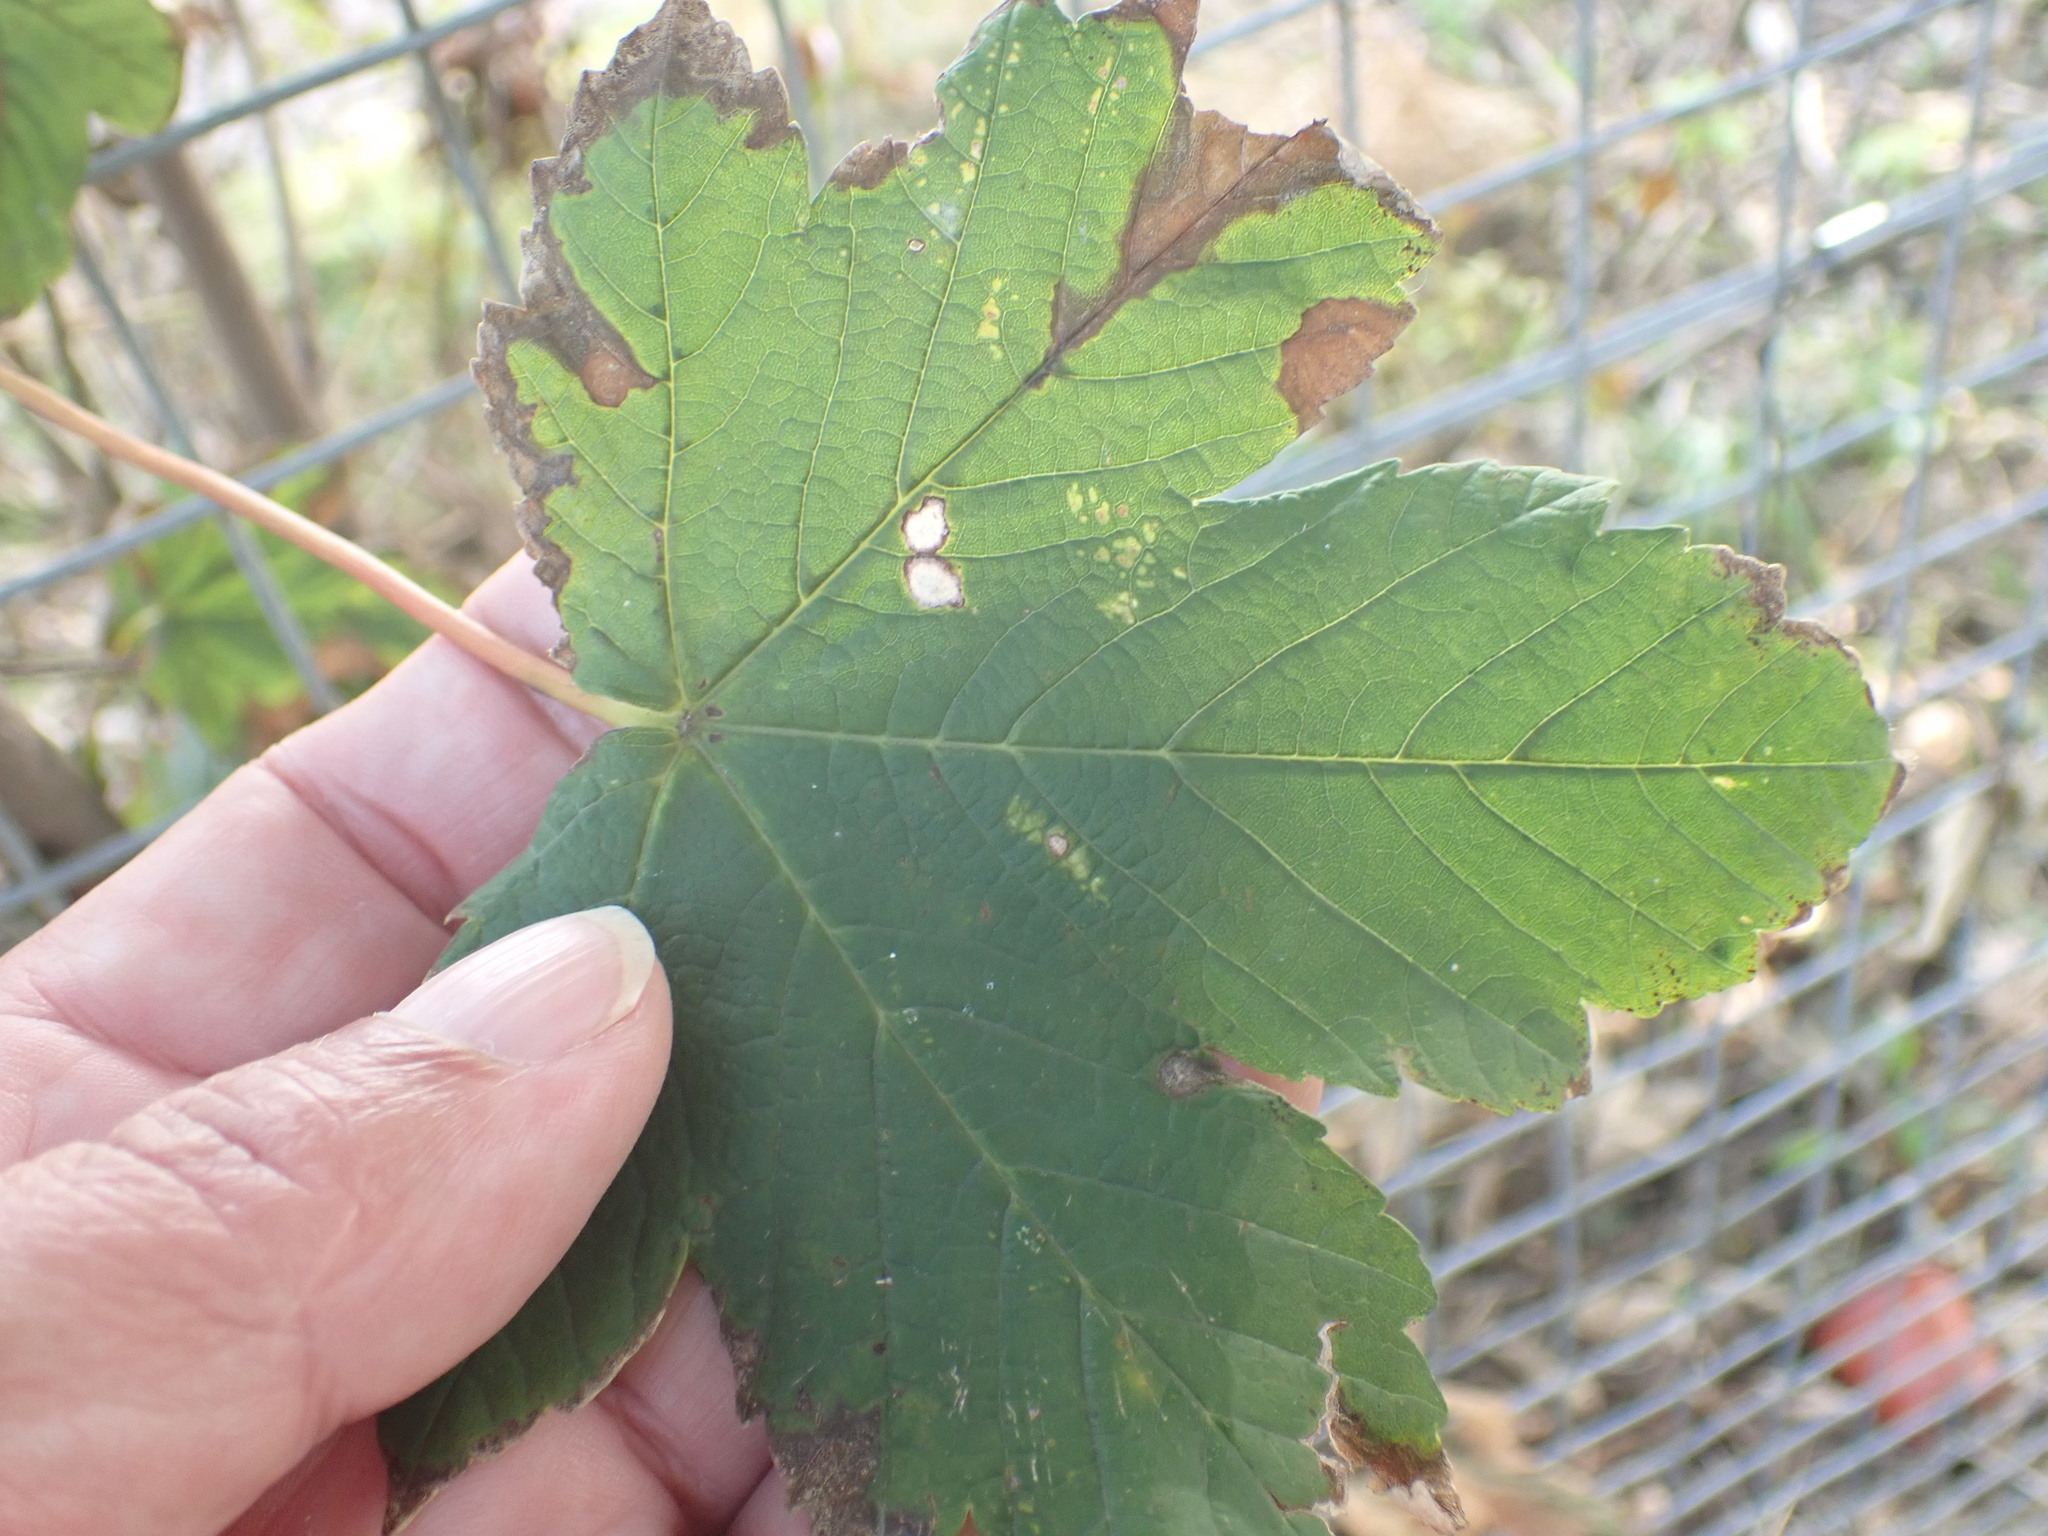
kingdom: Plantae
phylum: Tracheophyta
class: Magnoliopsida
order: Sapindales
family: Sapindaceae
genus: Acer
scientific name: Acer pseudoplatanus
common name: Sycamore
